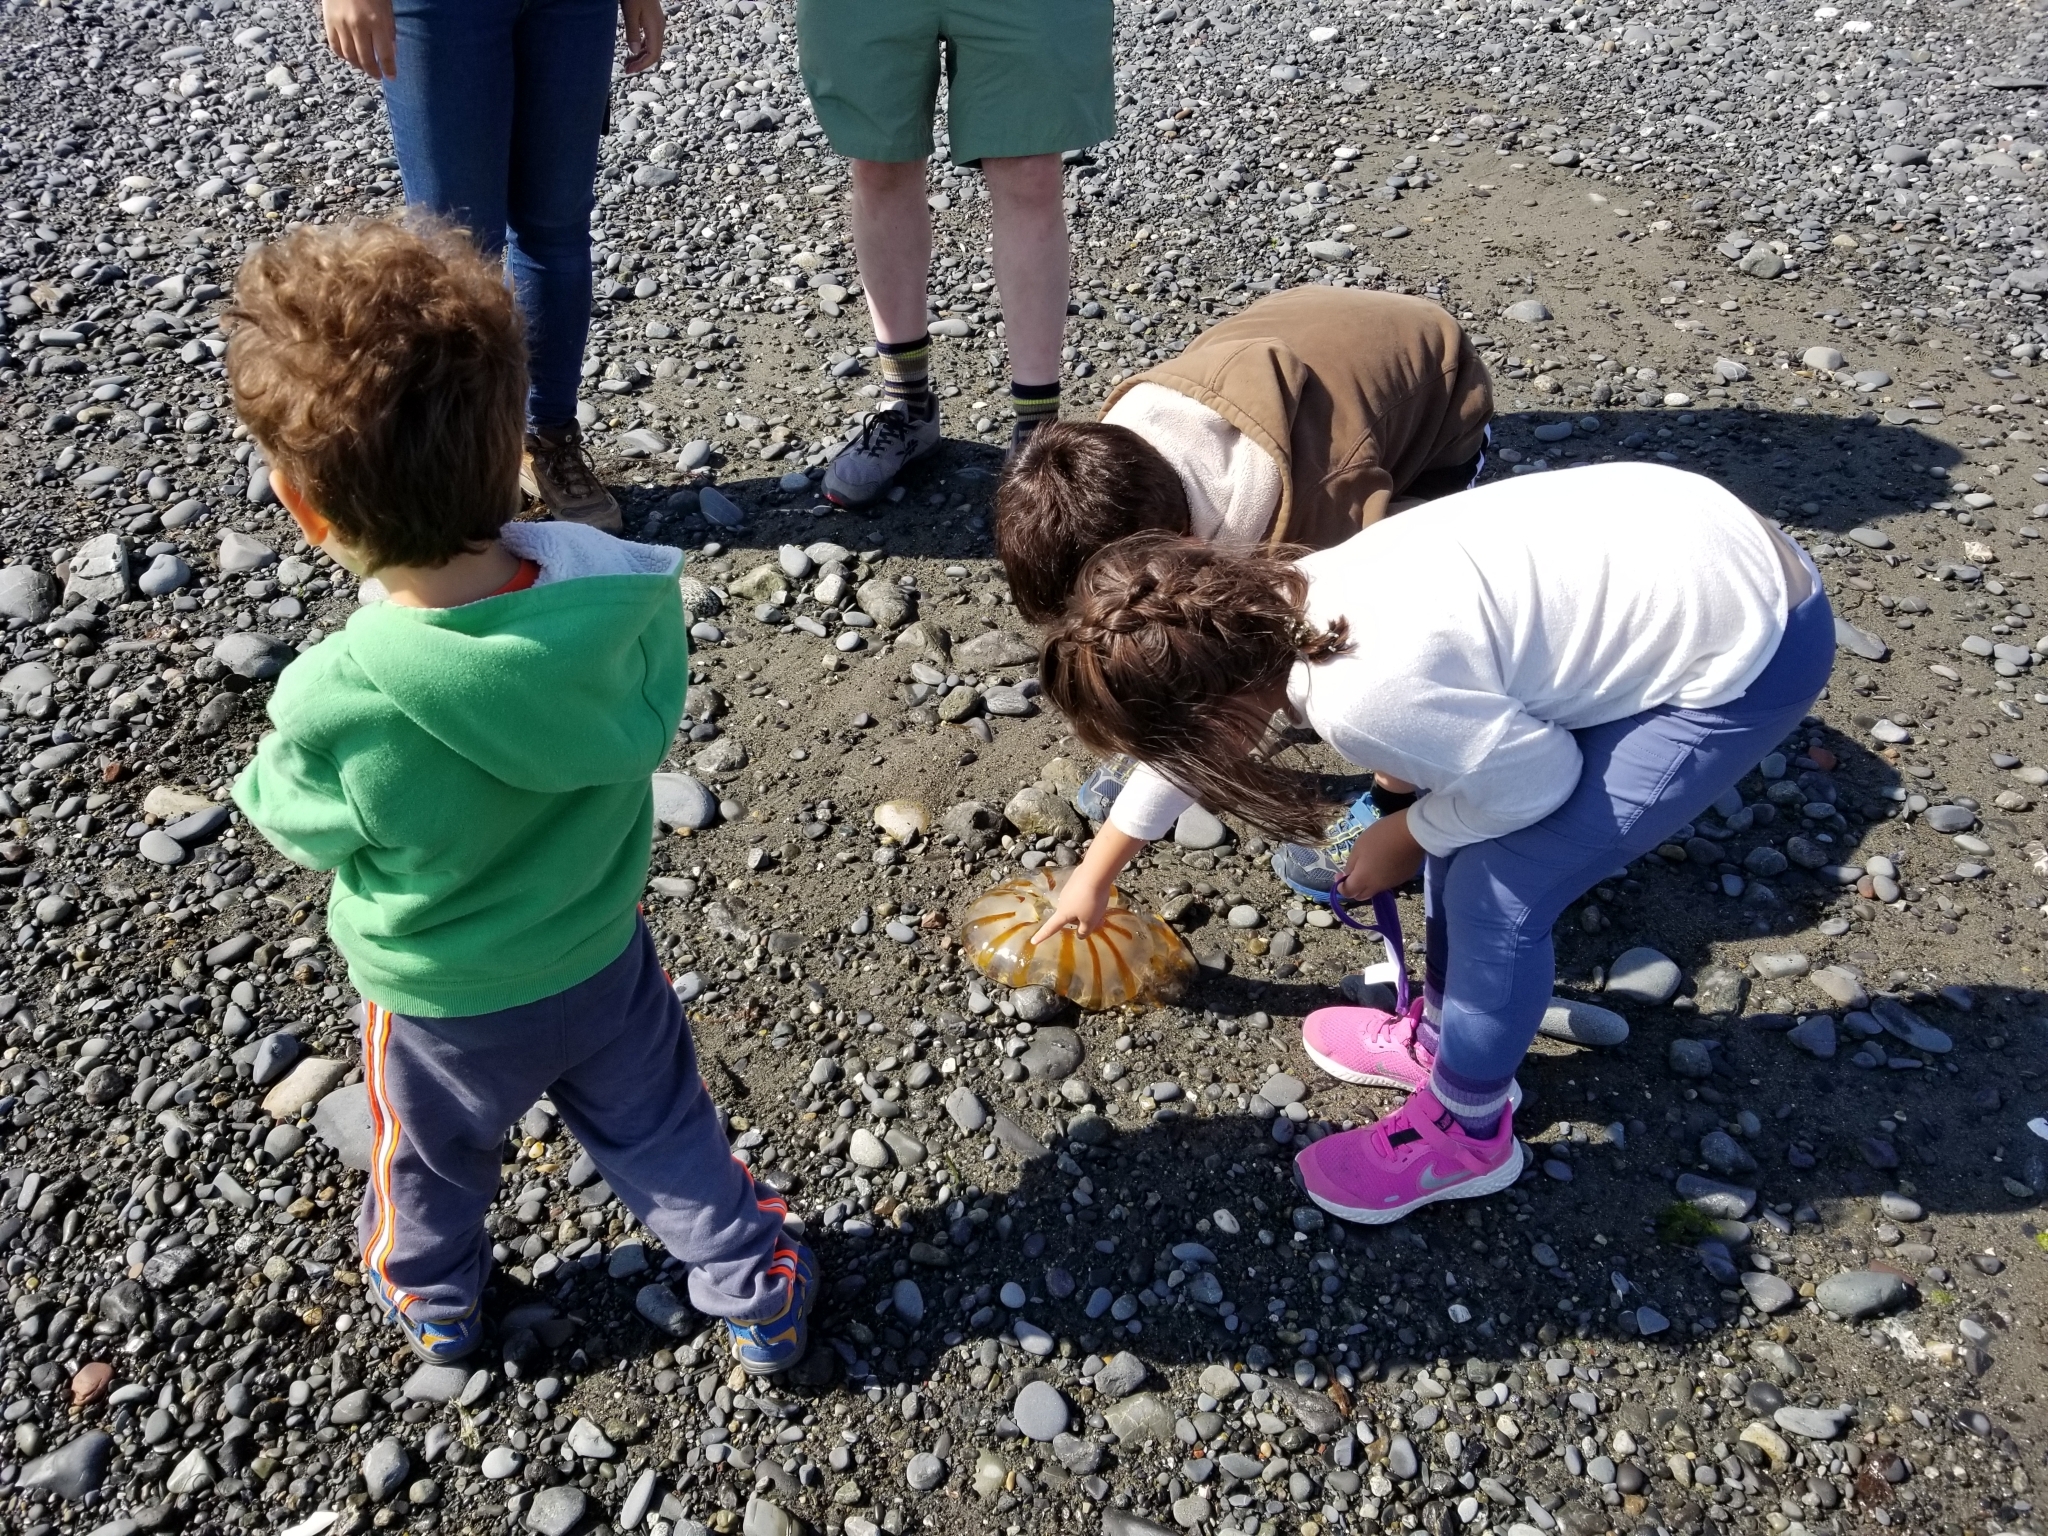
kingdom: Animalia
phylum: Cnidaria
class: Scyphozoa
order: Semaeostomeae
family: Pelagiidae
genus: Chrysaora
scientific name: Chrysaora melanaster
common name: Northern sea nettle
